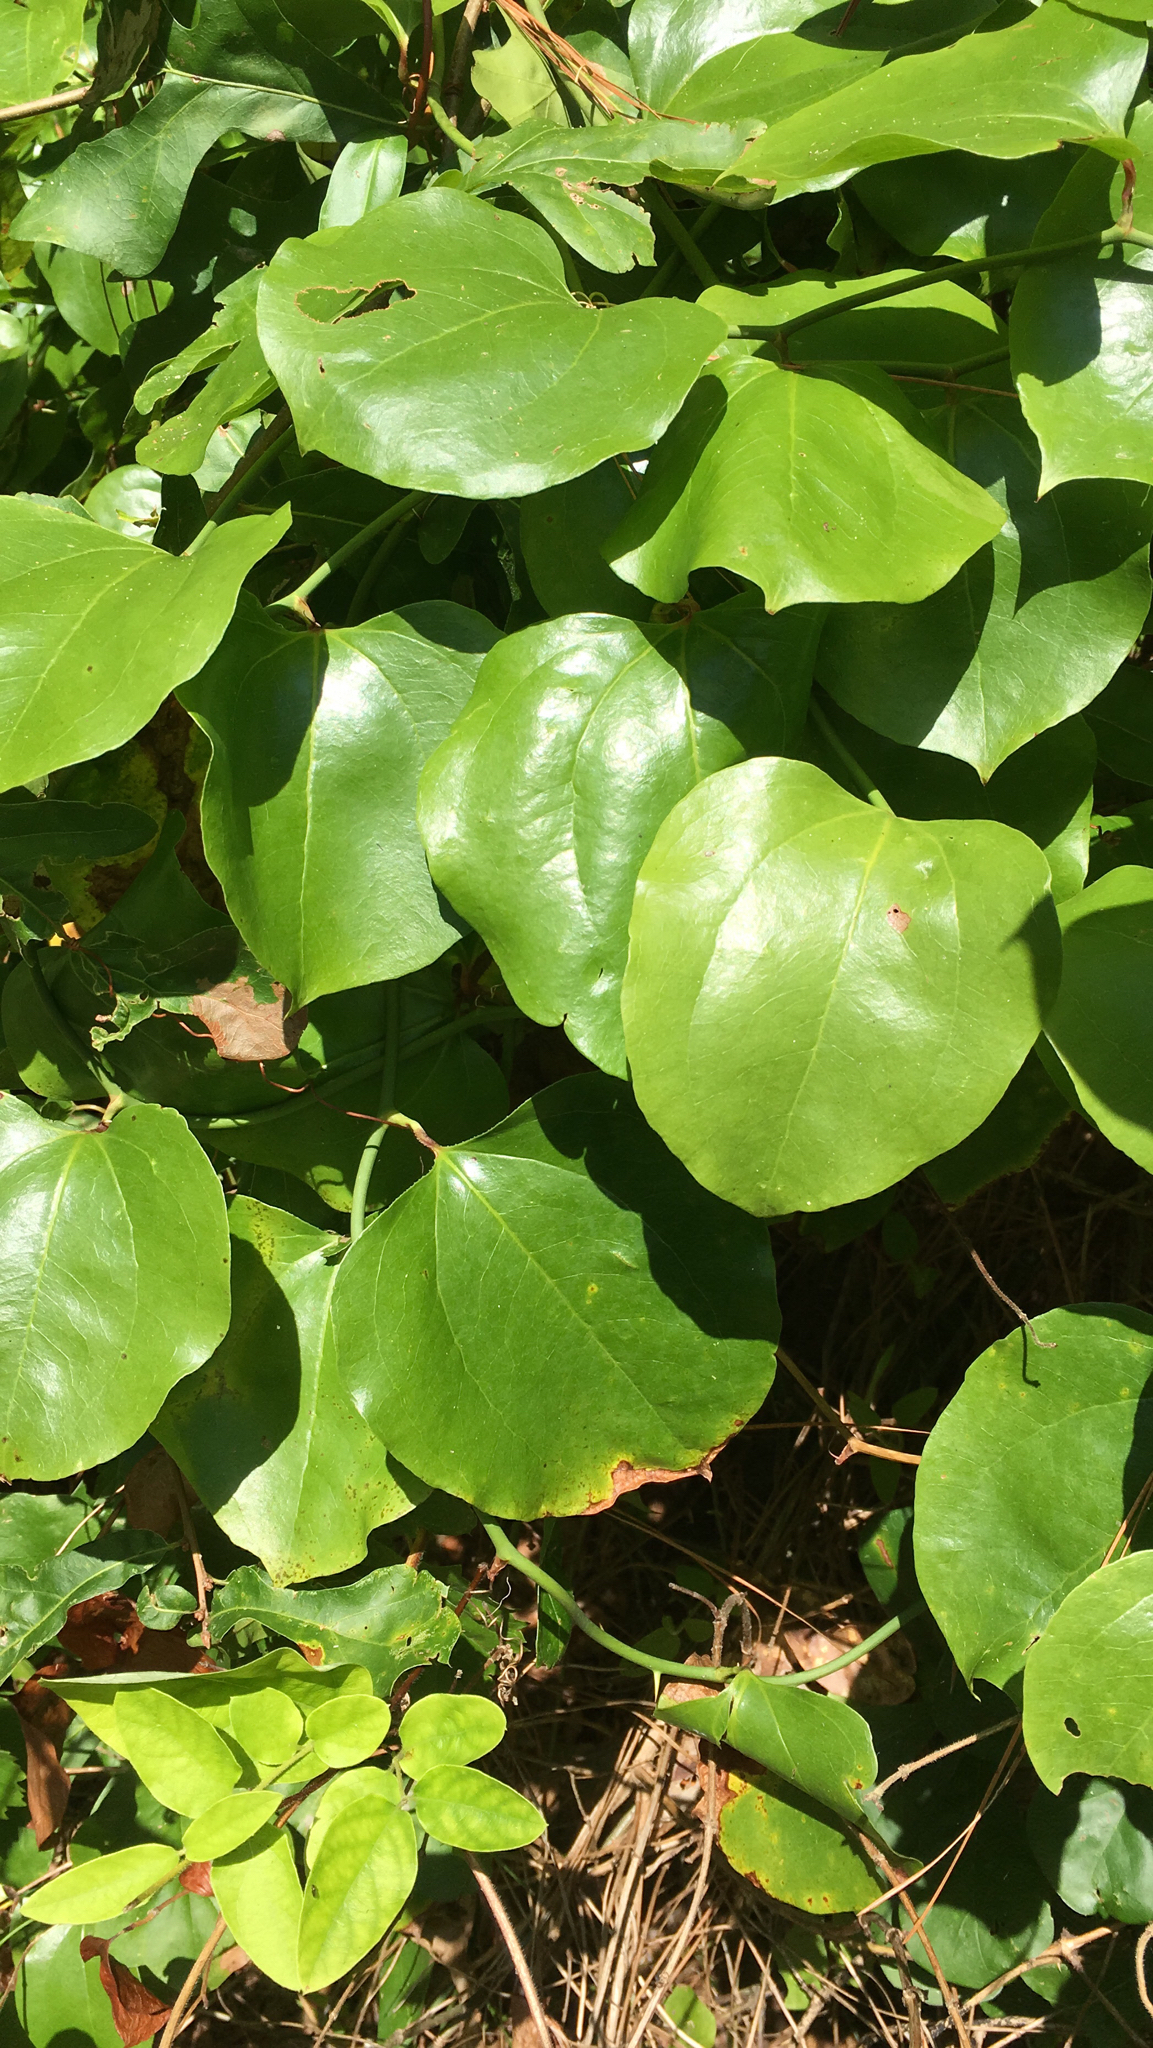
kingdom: Plantae
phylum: Tracheophyta
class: Liliopsida
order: Liliales
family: Smilacaceae
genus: Smilax
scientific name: Smilax rotundifolia
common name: Bullbriar
